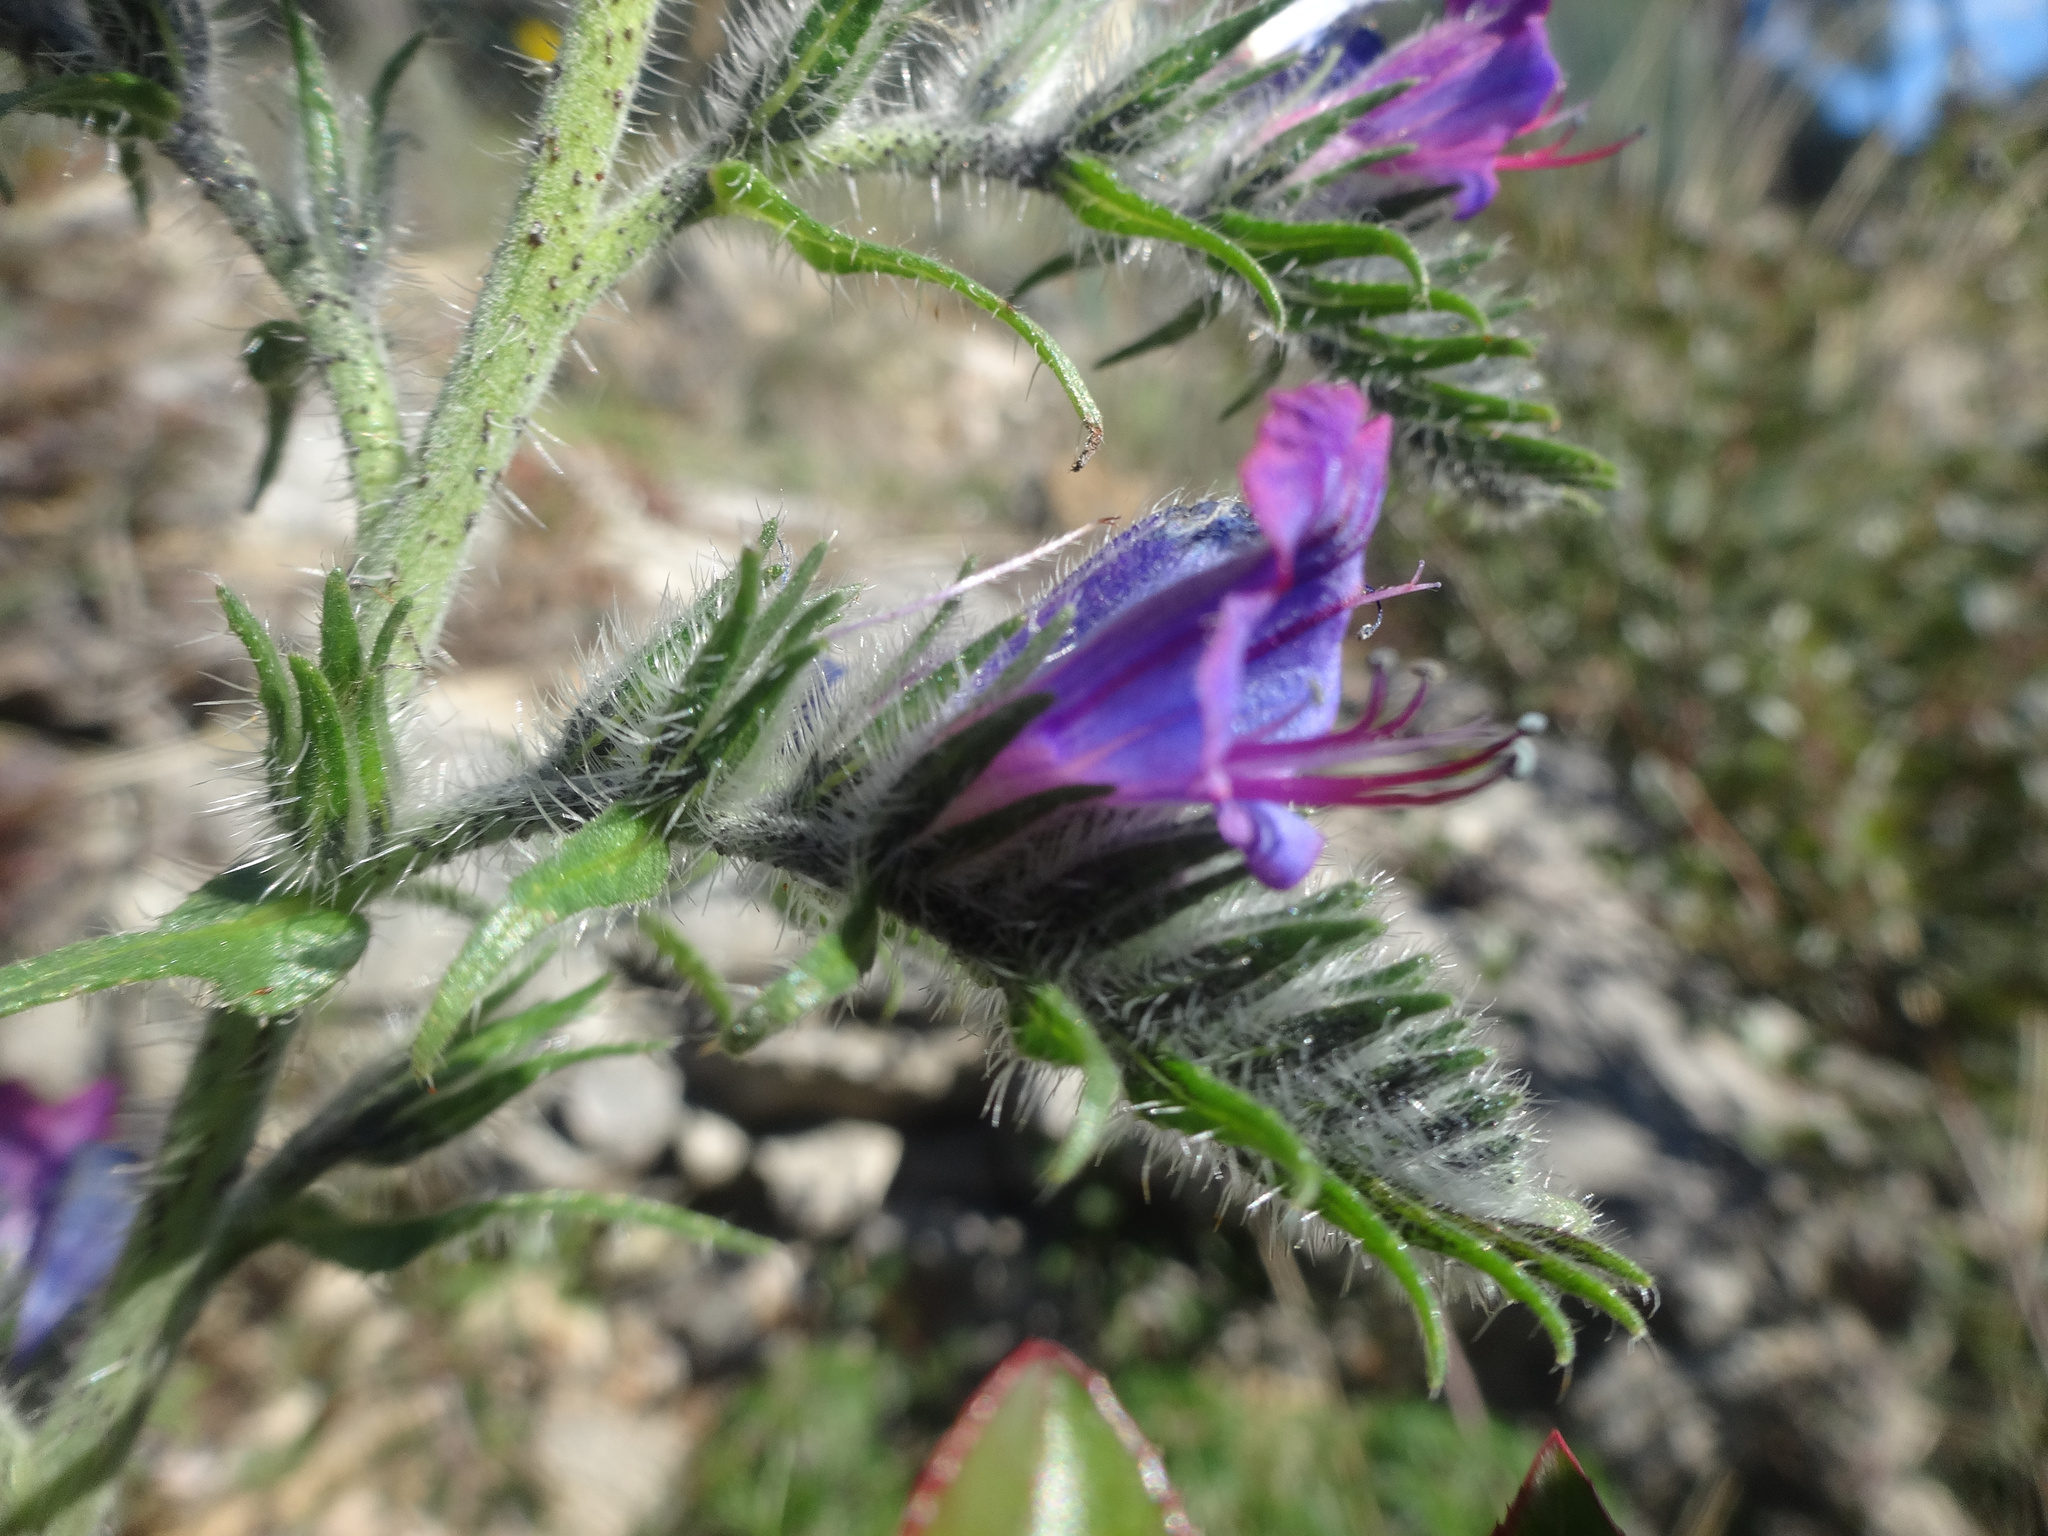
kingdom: Plantae
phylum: Tracheophyta
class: Magnoliopsida
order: Boraginales
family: Boraginaceae
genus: Echium
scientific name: Echium vulgare
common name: Common viper's bugloss
